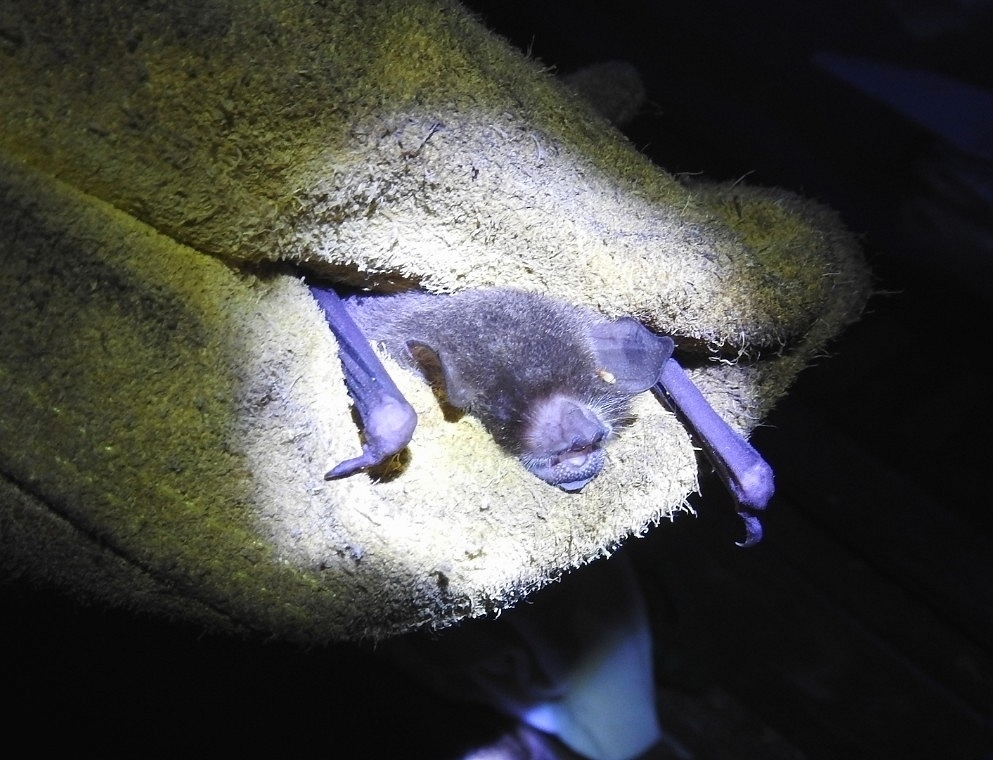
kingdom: Animalia
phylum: Chordata
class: Mammalia
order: Chiroptera
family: Mormoopidae
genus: Pteronotus
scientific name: Pteronotus mesoamericanus
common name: Mesoamerican common mustached bat
